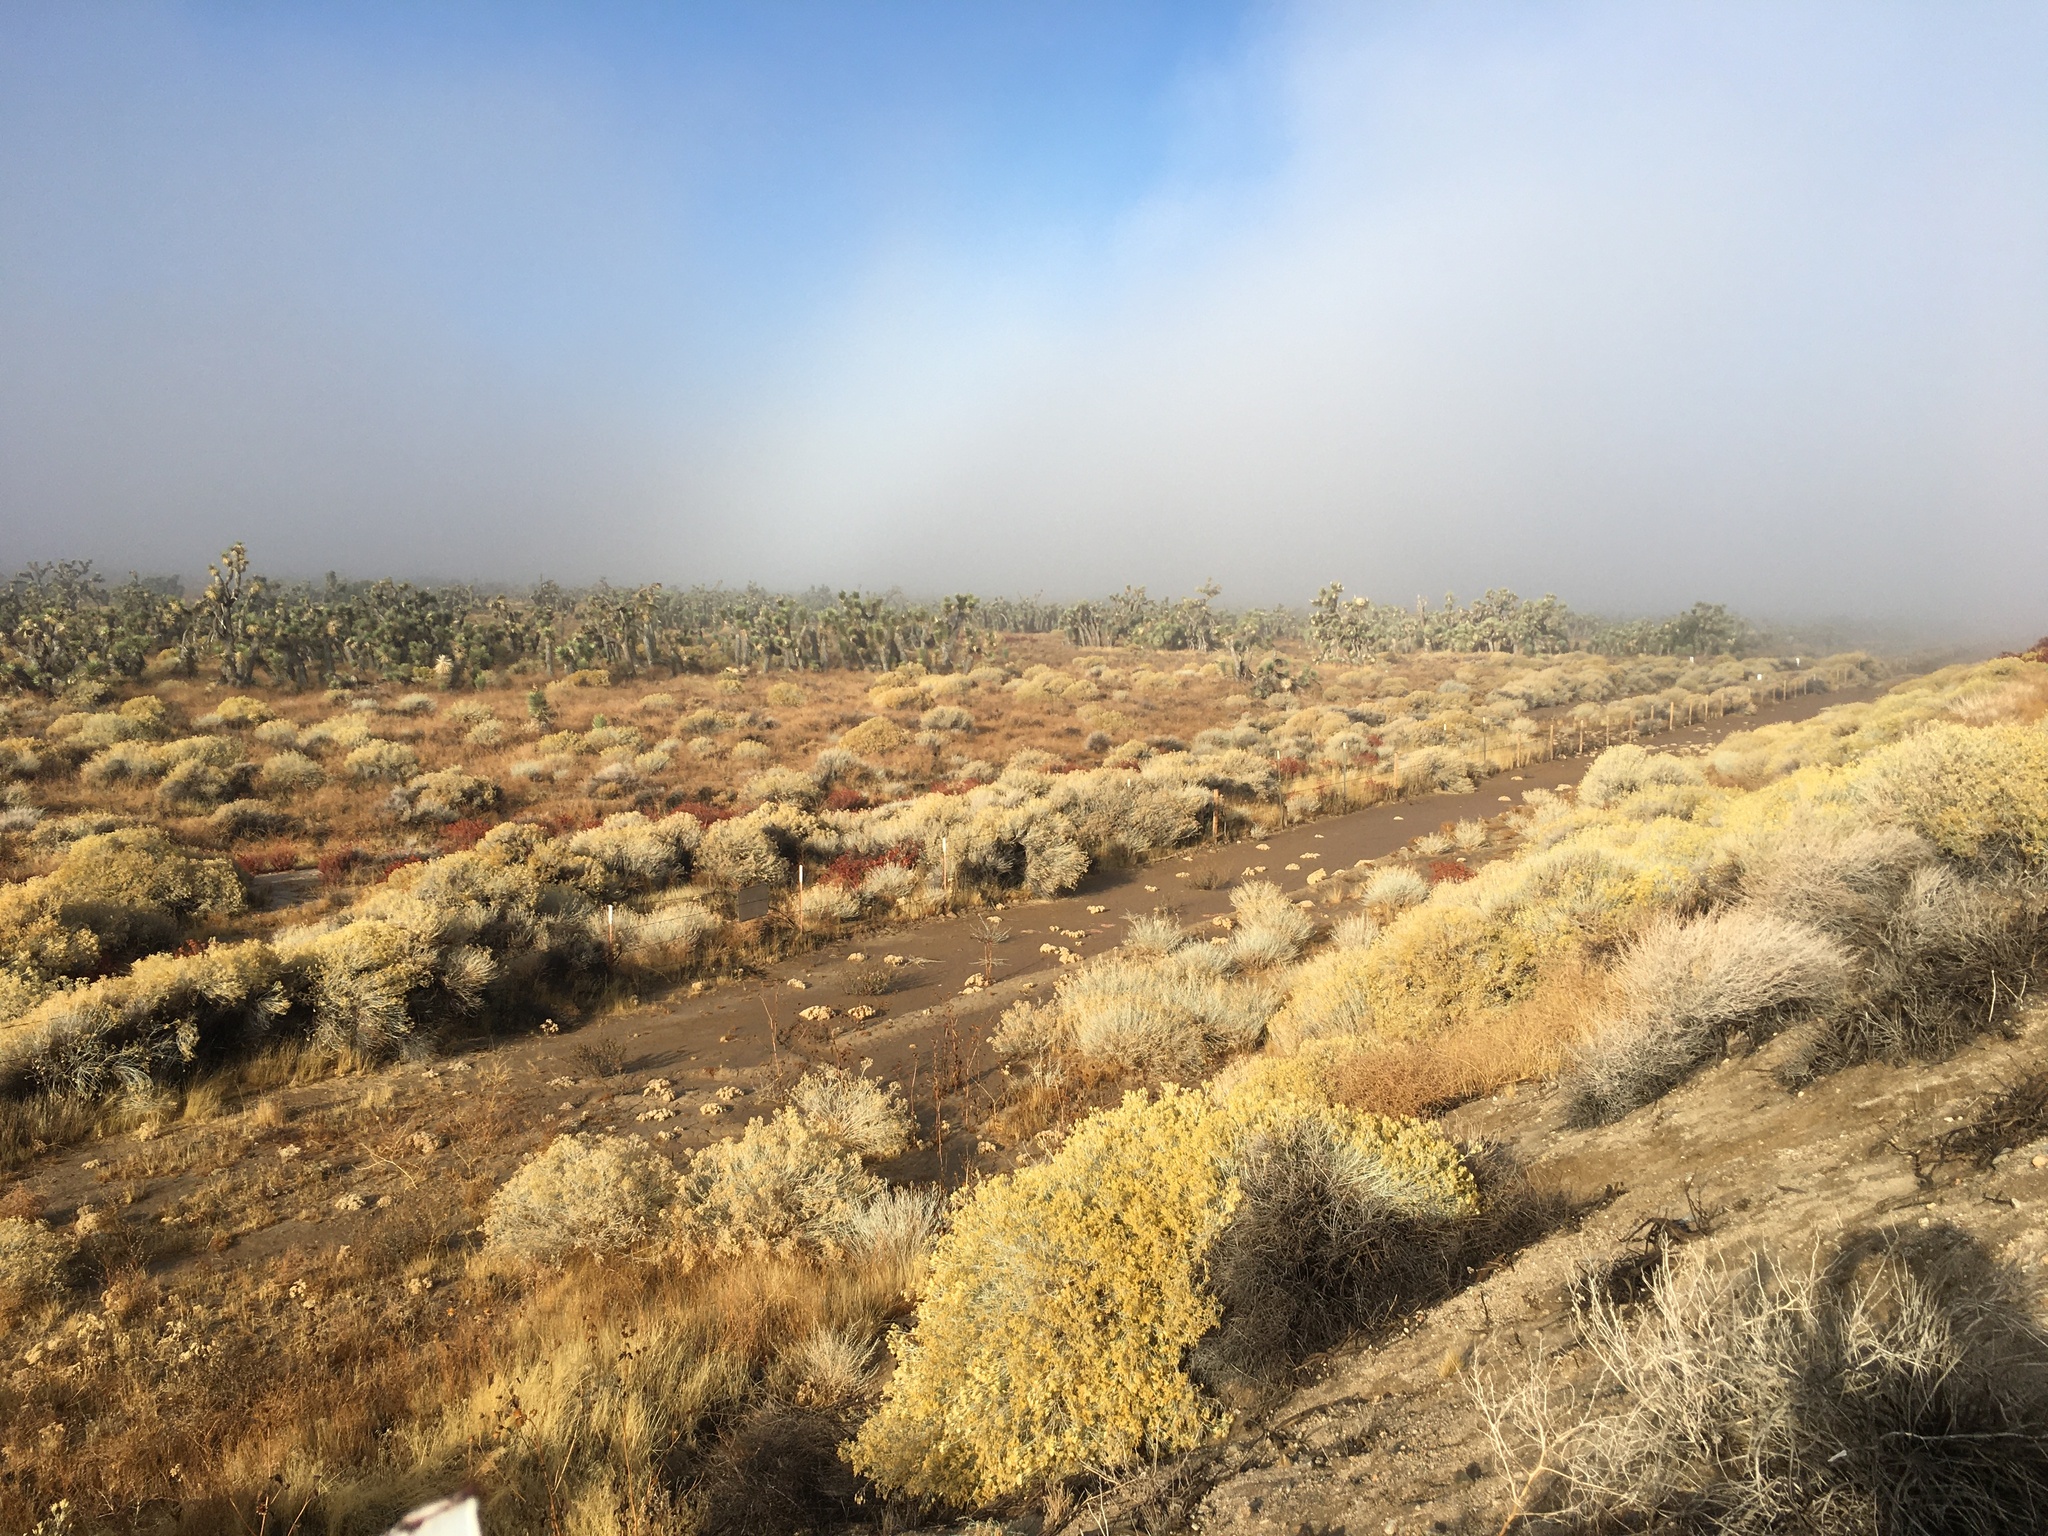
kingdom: Plantae
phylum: Tracheophyta
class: Liliopsida
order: Asparagales
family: Asparagaceae
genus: Yucca
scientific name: Yucca brevifolia
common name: Joshua tree
